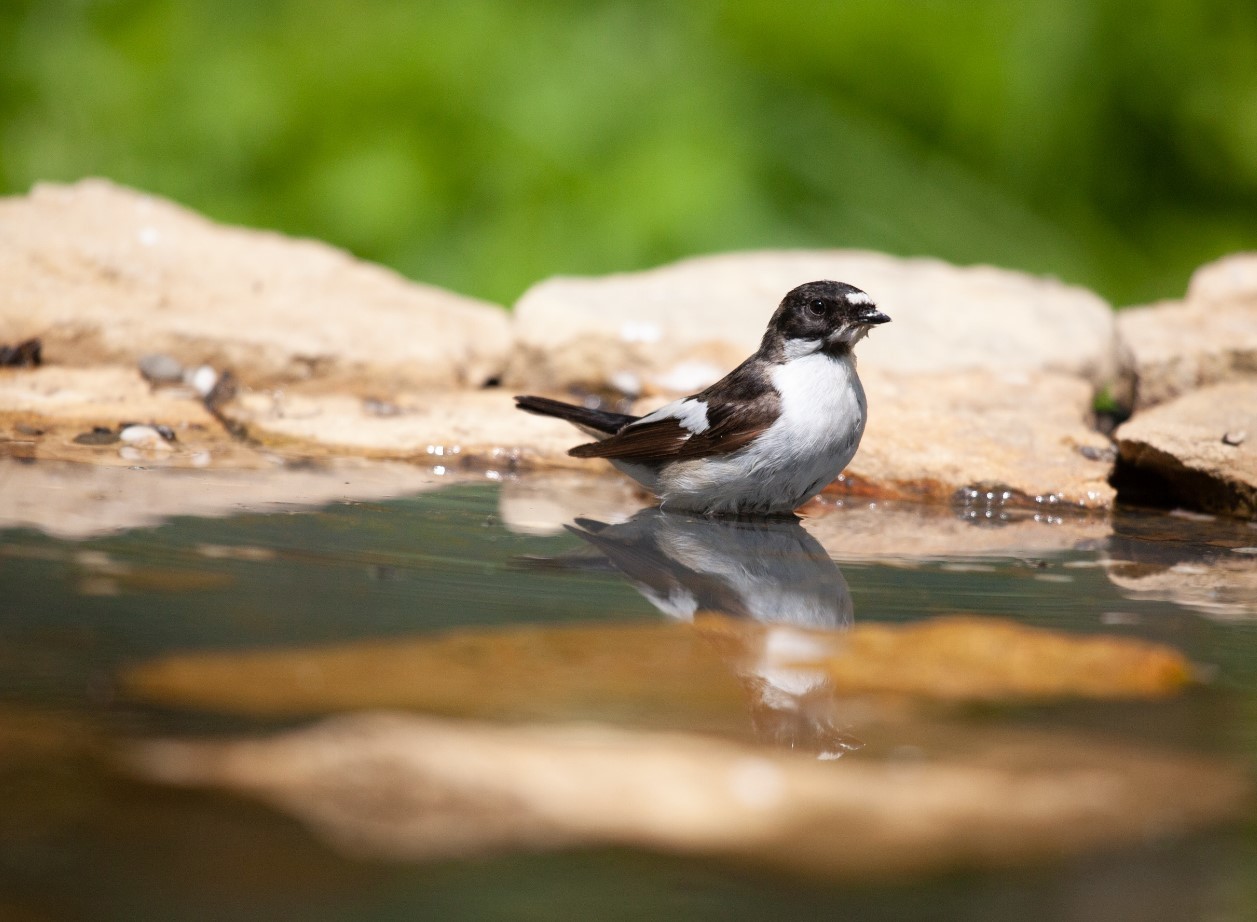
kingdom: Animalia
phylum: Chordata
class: Aves
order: Passeriformes
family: Muscicapidae
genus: Ficedula
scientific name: Ficedula hypoleuca
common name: European pied flycatcher
